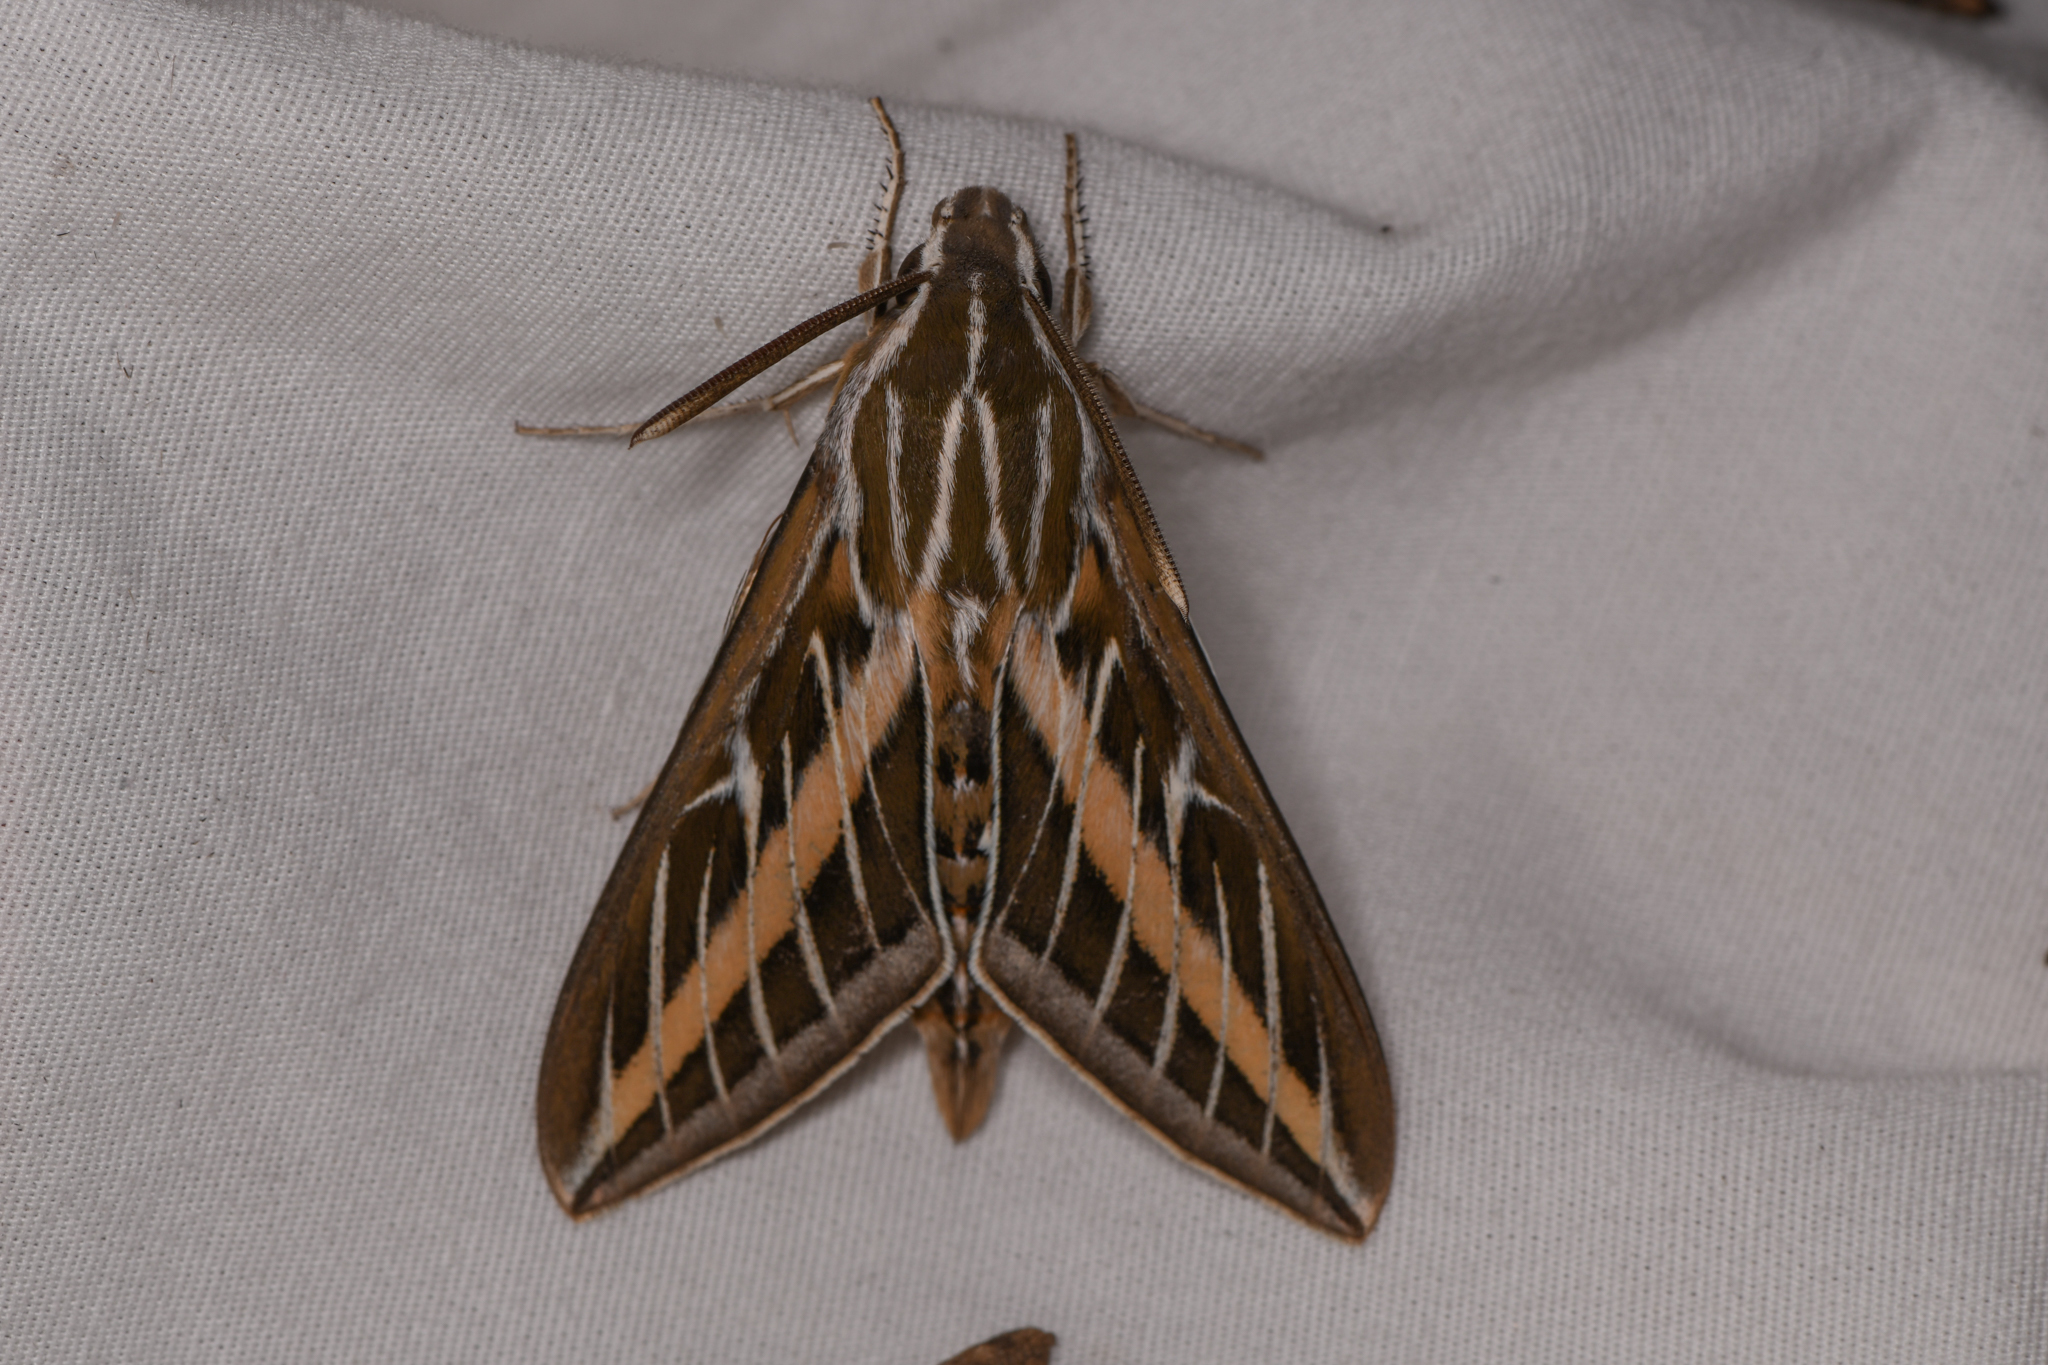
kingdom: Animalia
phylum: Arthropoda
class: Insecta
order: Lepidoptera
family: Sphingidae
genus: Hyles
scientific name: Hyles lineata
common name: White-lined sphinx
